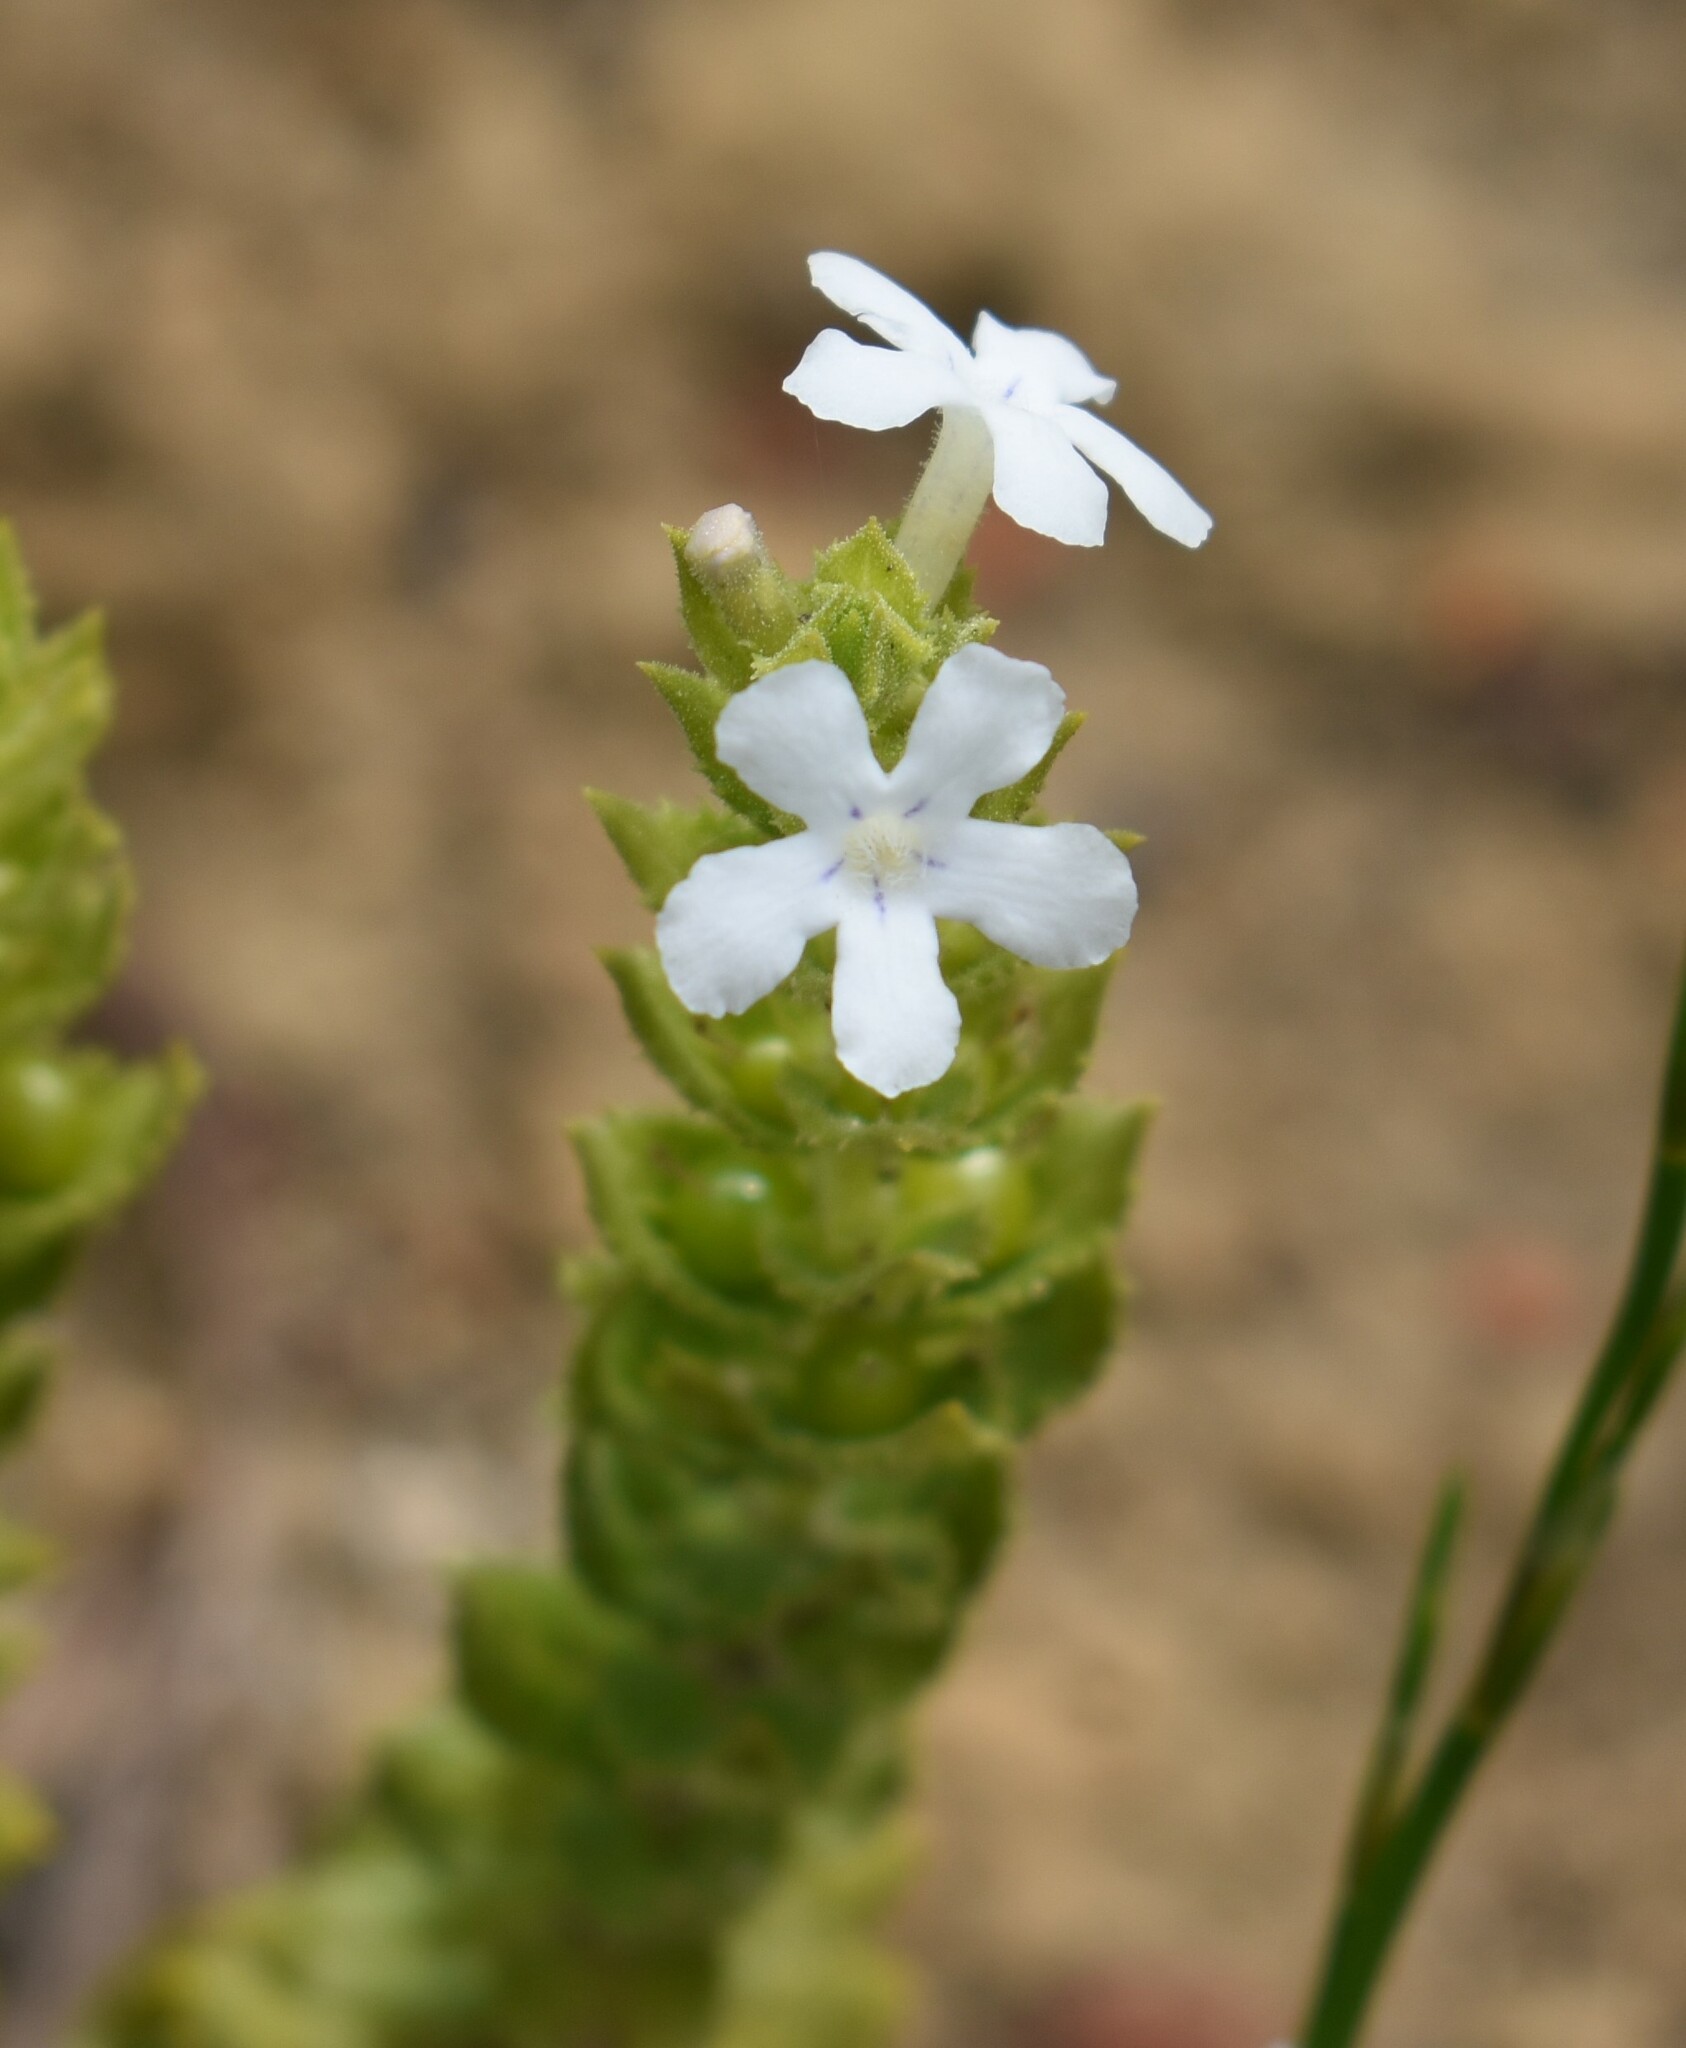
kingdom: Plantae
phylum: Tracheophyta
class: Magnoliopsida
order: Lamiales
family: Scrophulariaceae
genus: Oftia
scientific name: Oftia africana
